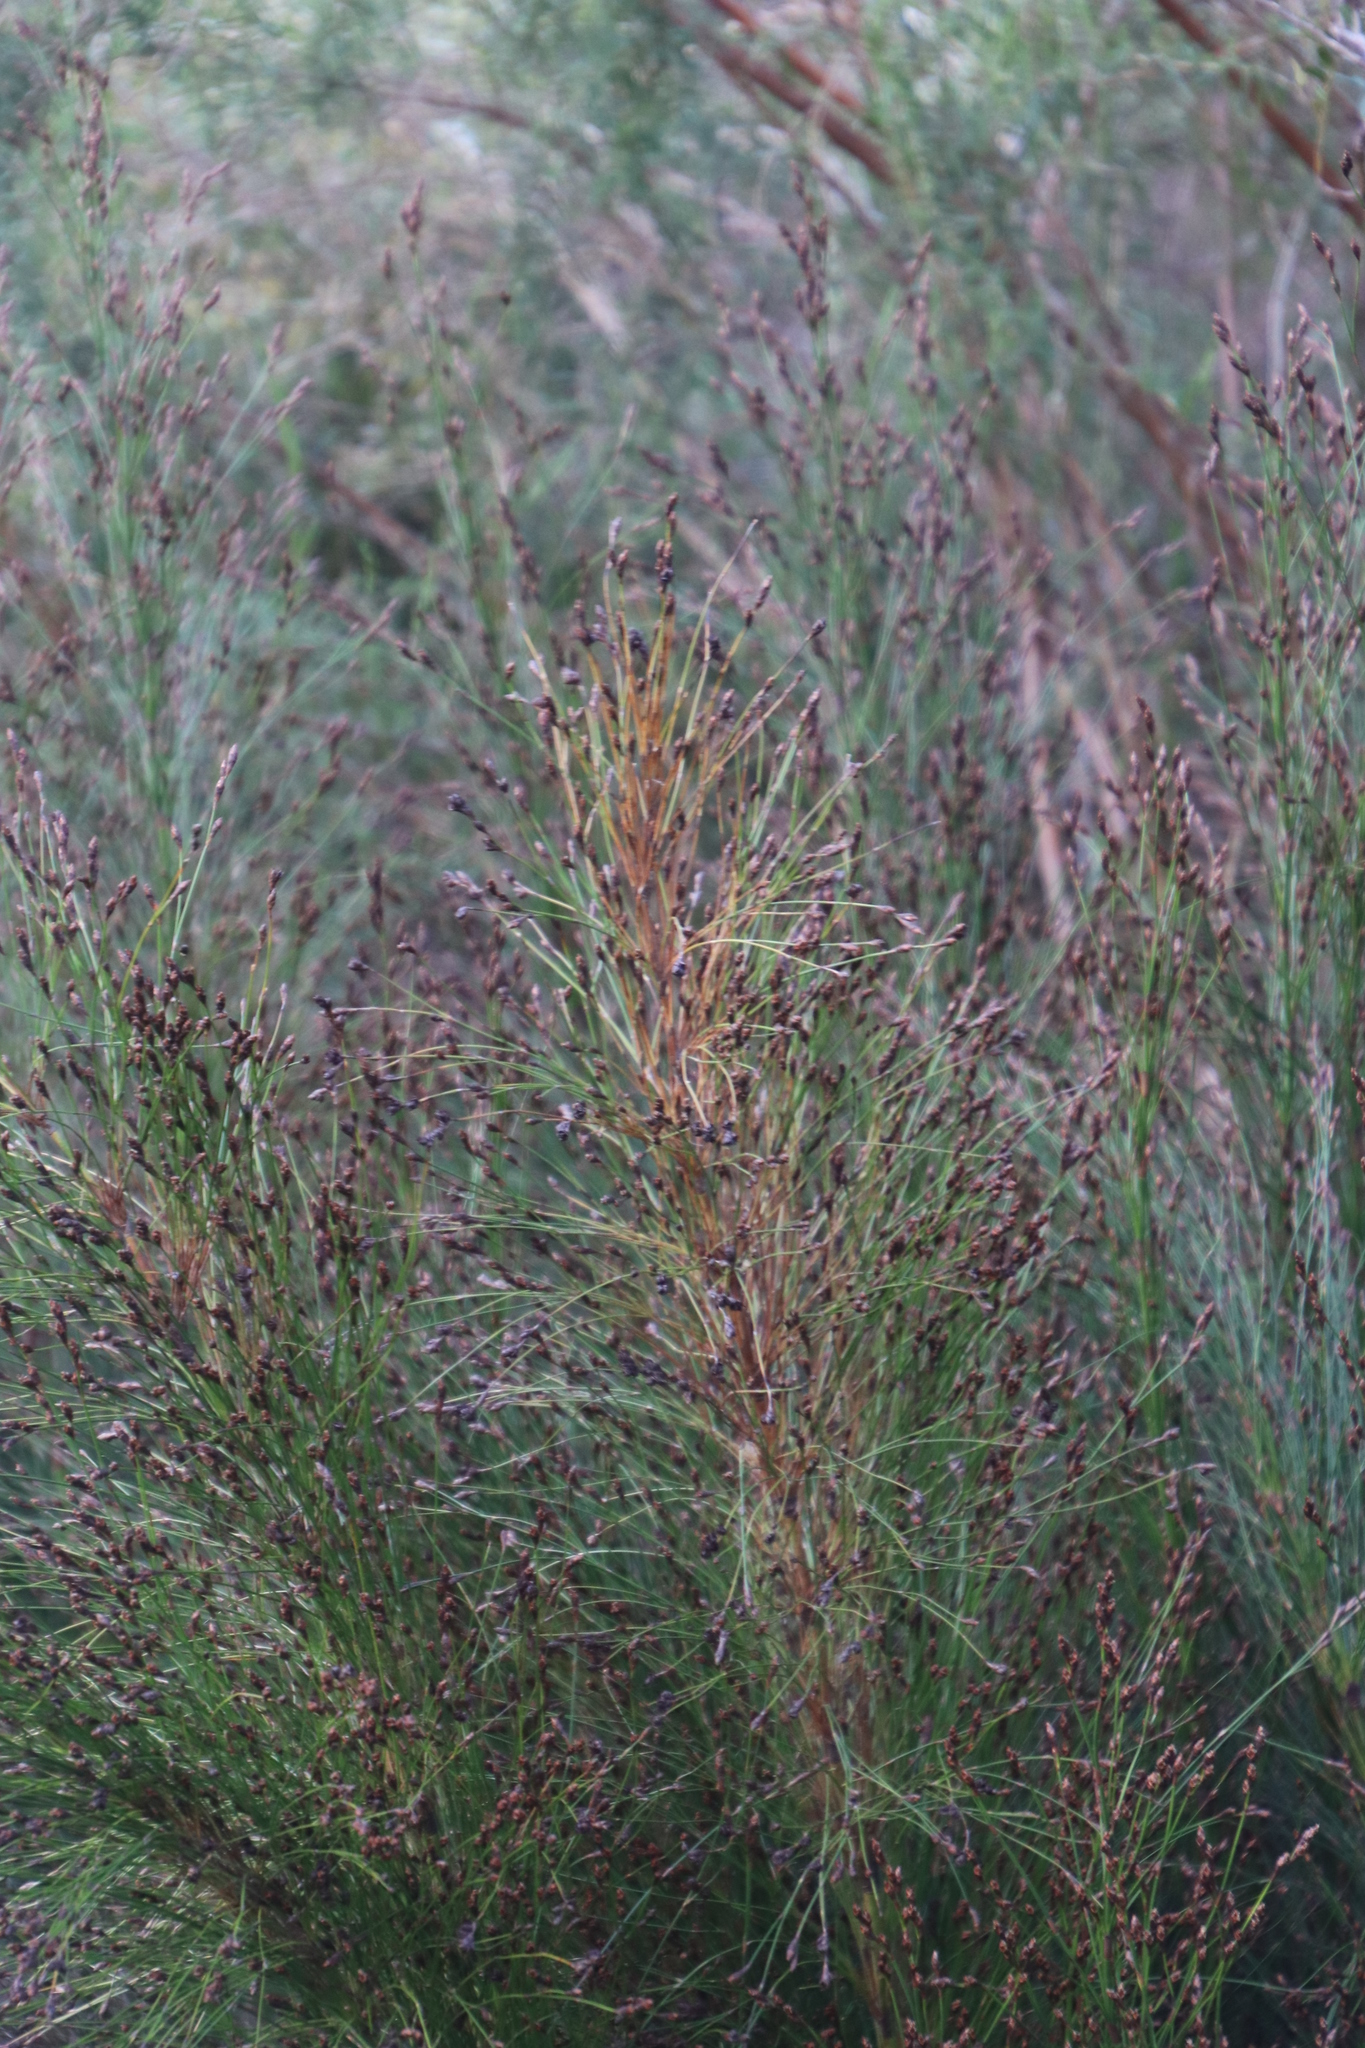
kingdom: Plantae
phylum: Tracheophyta
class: Liliopsida
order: Poales
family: Restionaceae
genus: Restio
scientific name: Restio subverticillatus
